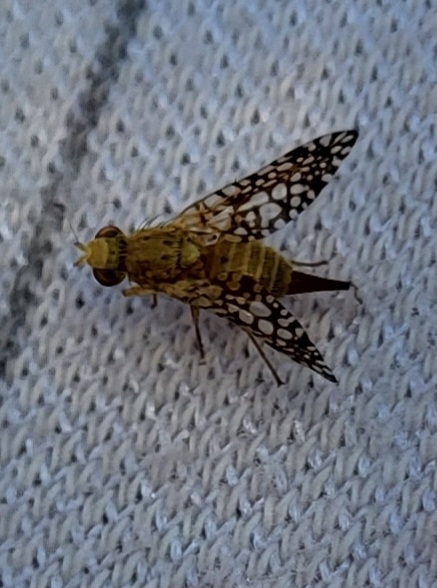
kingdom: Animalia
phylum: Arthropoda
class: Insecta
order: Diptera
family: Tephritidae
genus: Euaresta
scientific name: Euaresta aequalis
